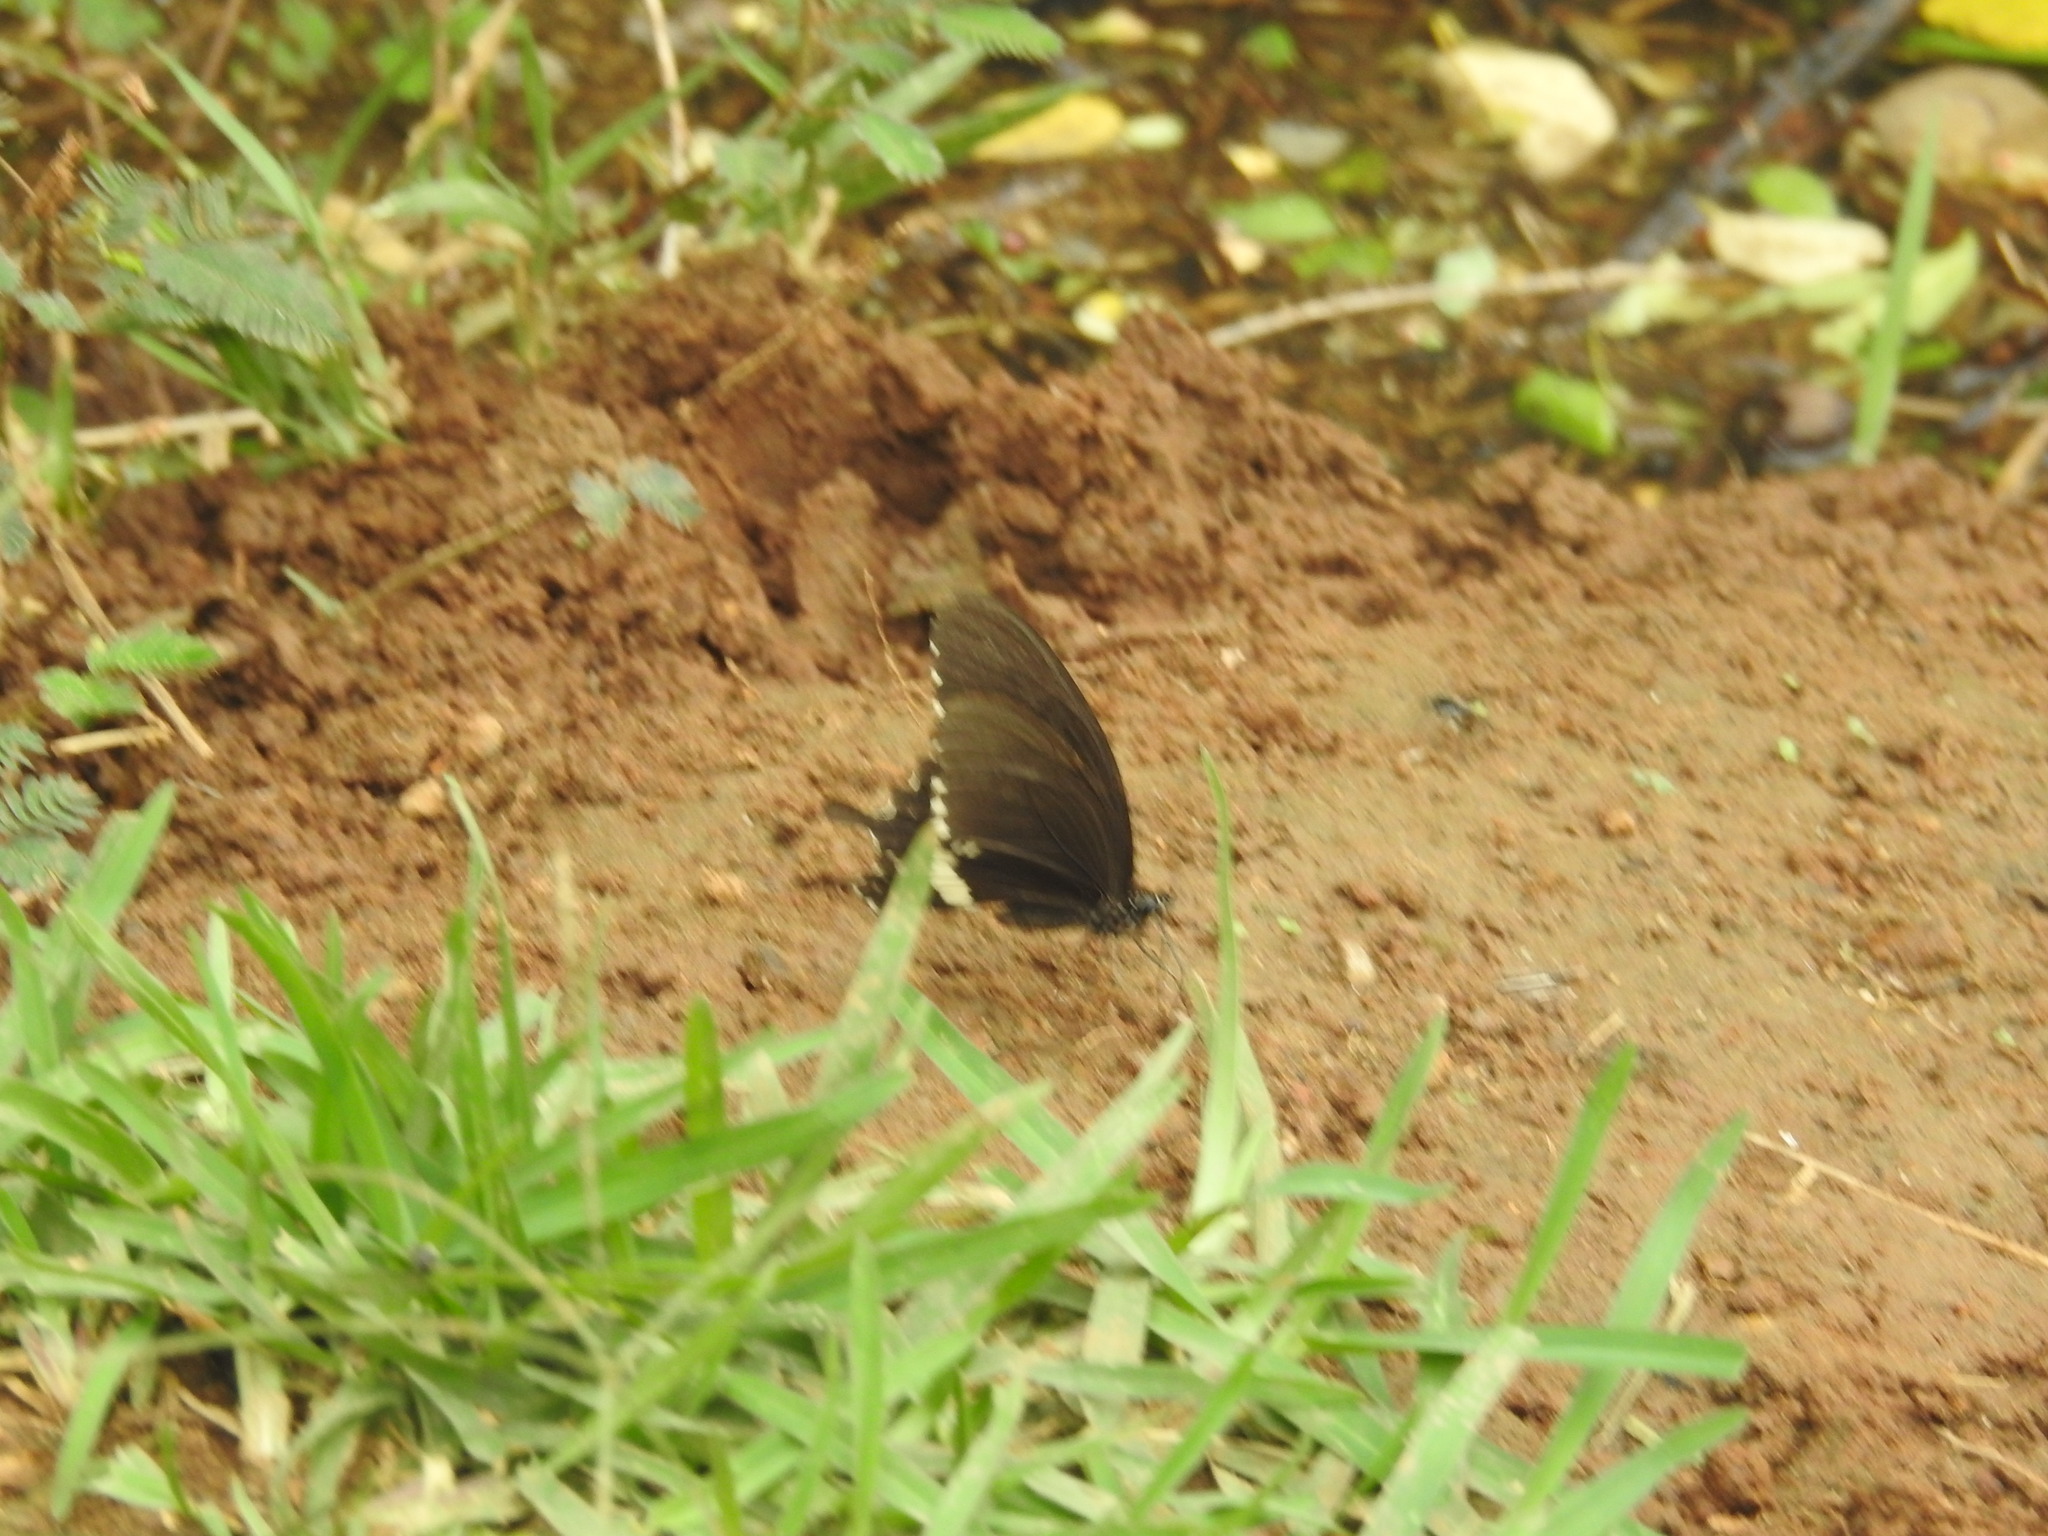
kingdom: Animalia
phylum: Arthropoda
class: Insecta
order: Lepidoptera
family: Papilionidae
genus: Papilio
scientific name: Papilio polytes
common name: Common mormon
